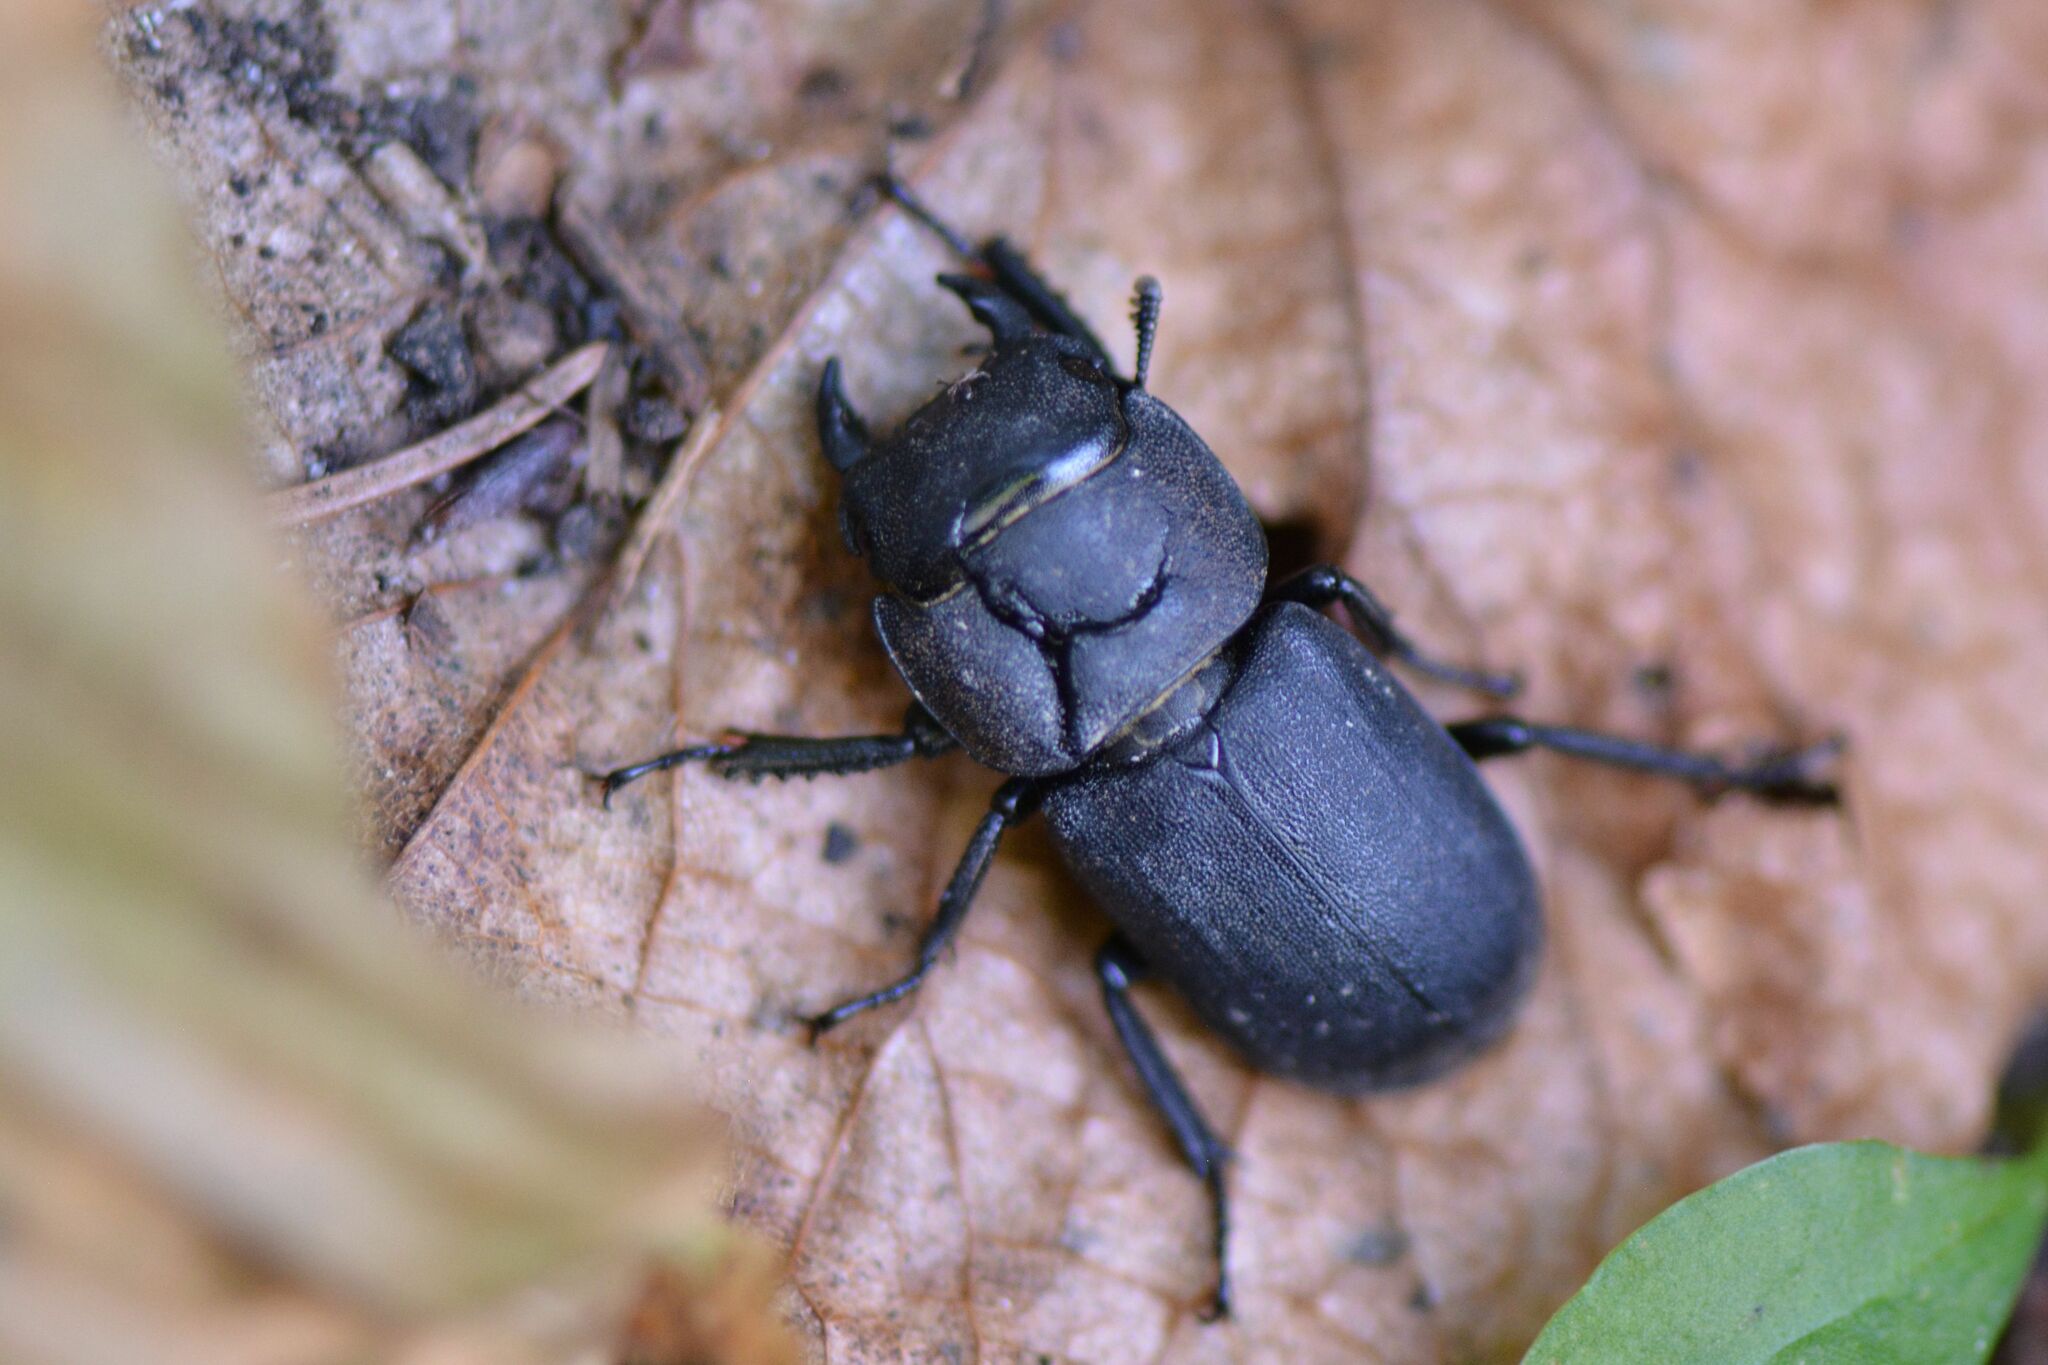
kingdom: Animalia
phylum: Arthropoda
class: Insecta
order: Coleoptera
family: Lucanidae
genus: Dorcus
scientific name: Dorcus parallelipipedus
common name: Lesser stag beetle
